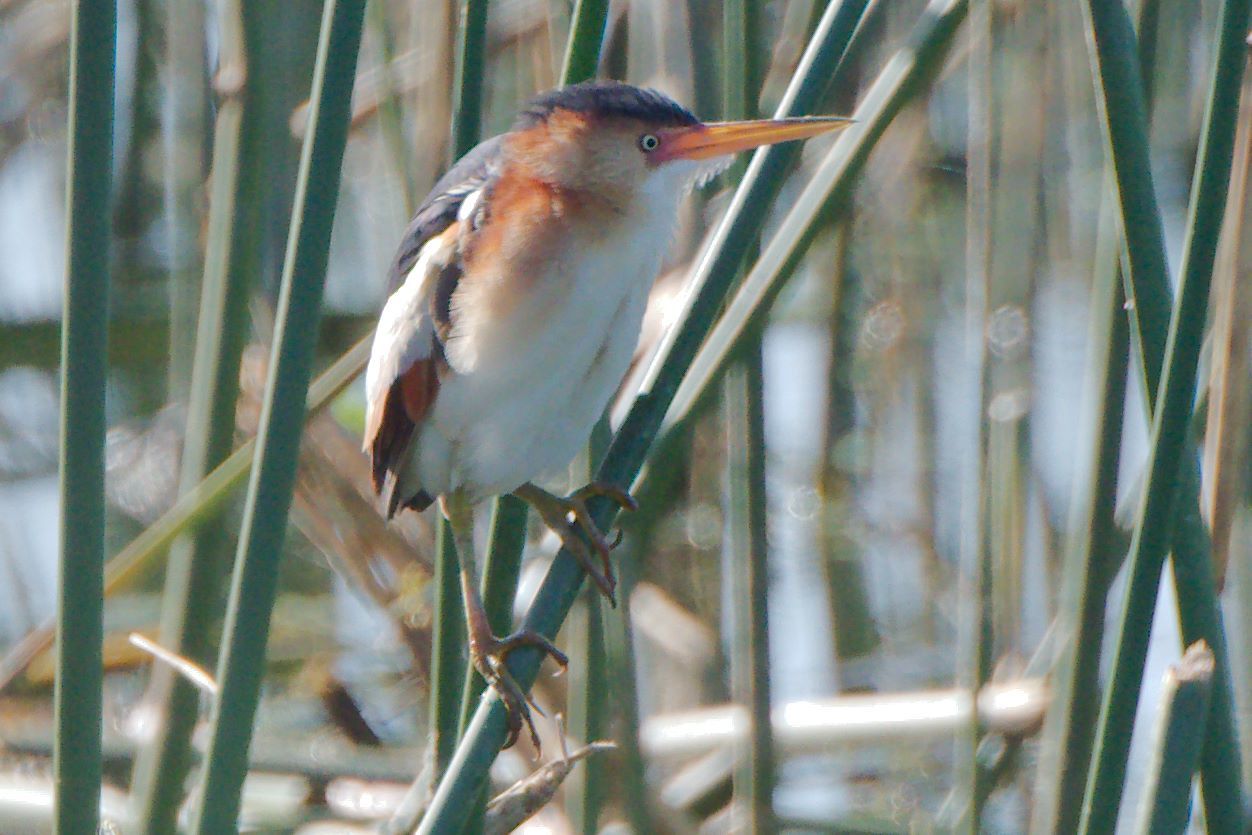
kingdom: Animalia
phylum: Chordata
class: Aves
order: Pelecaniformes
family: Ardeidae
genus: Ixobrychus
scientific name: Ixobrychus exilis
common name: Least bittern
